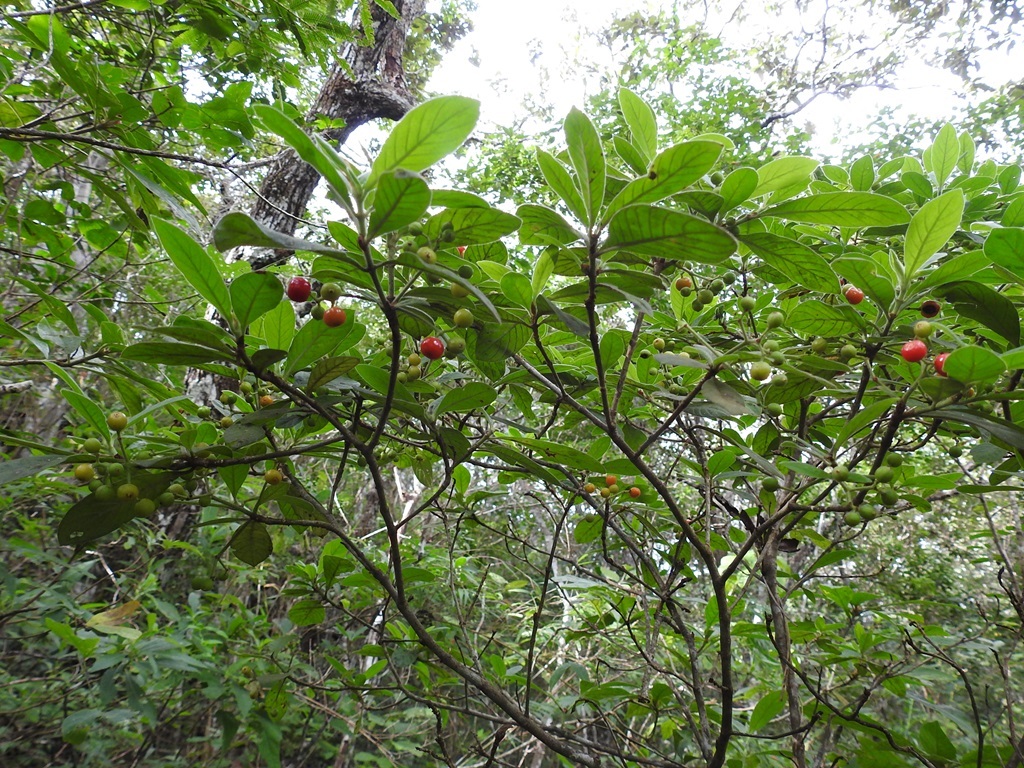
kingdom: Plantae
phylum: Tracheophyta
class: Magnoliopsida
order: Gentianales
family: Rubiaceae
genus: Psychotria
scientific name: Psychotria erythrocarpa
